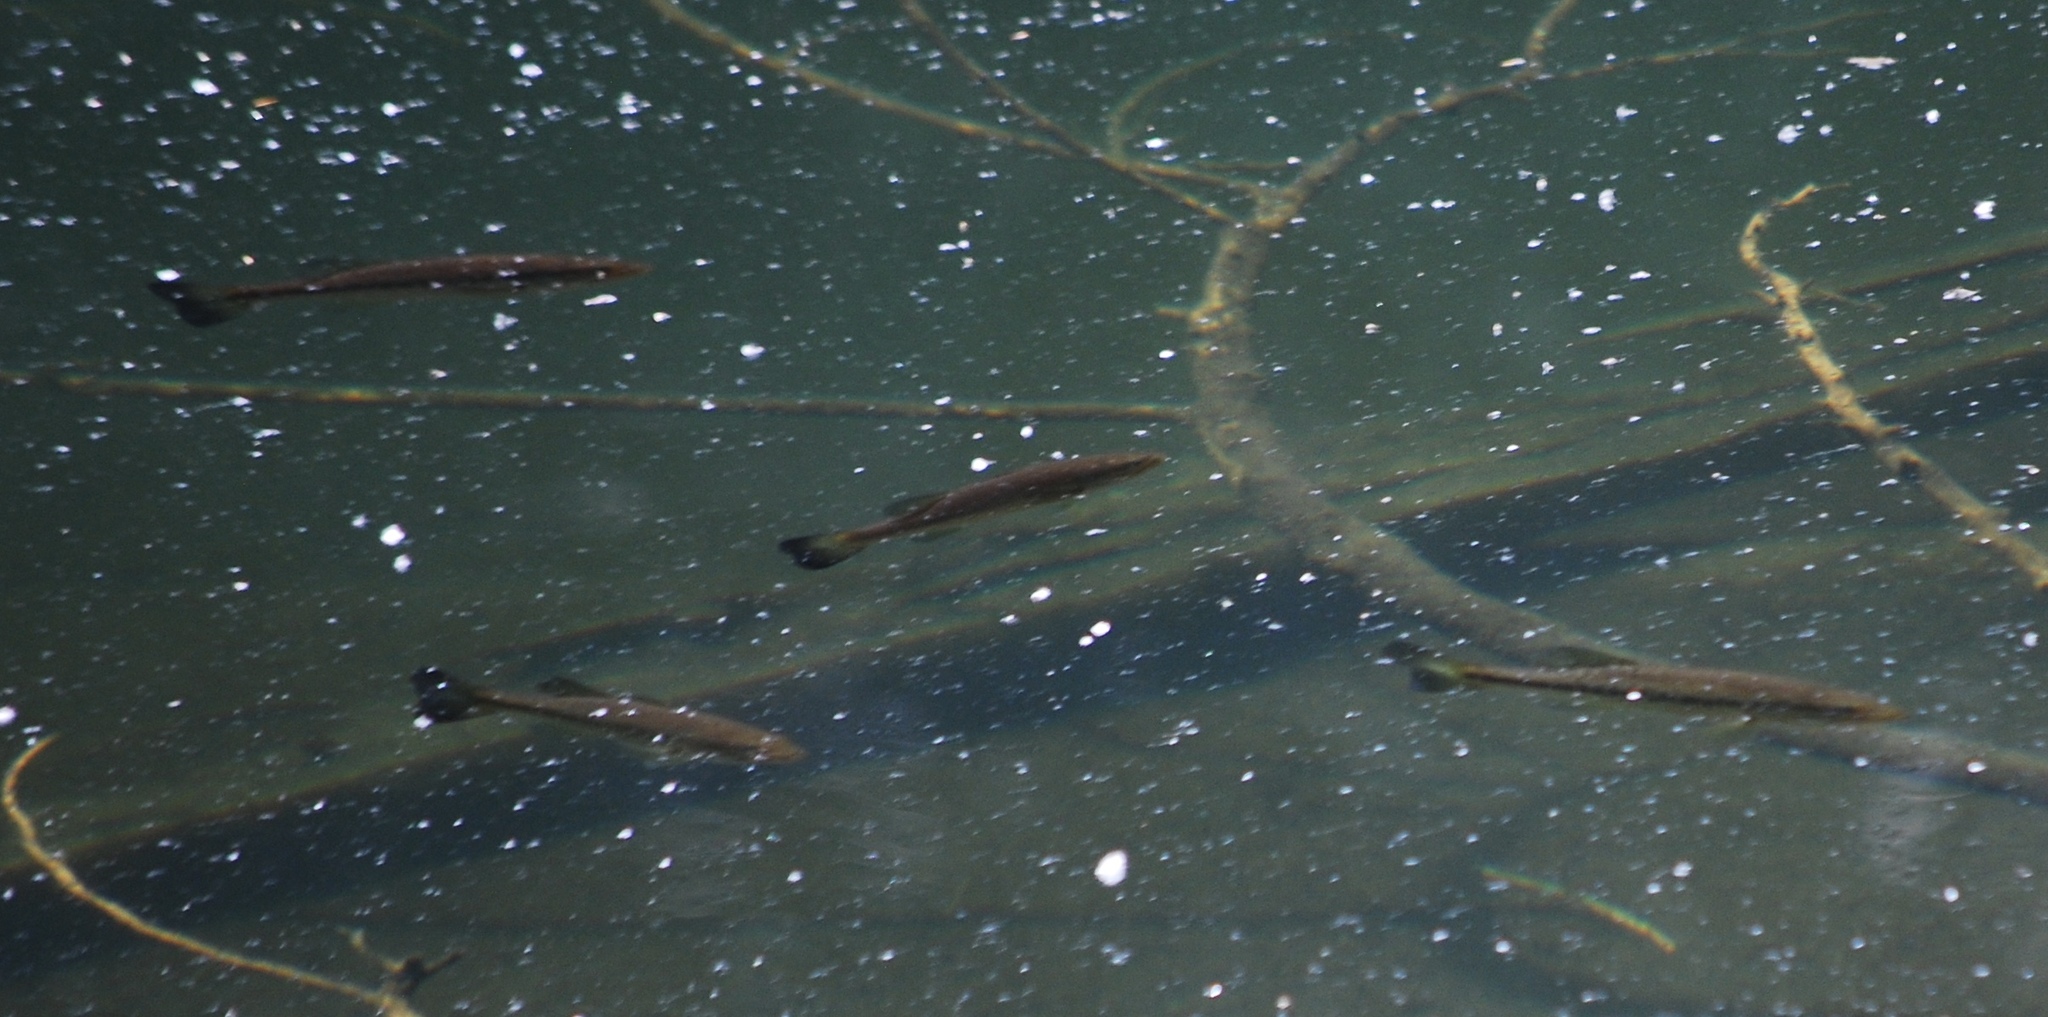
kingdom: Animalia
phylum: Chordata
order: Perciformes
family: Centrarchidae
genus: Micropterus
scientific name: Micropterus
